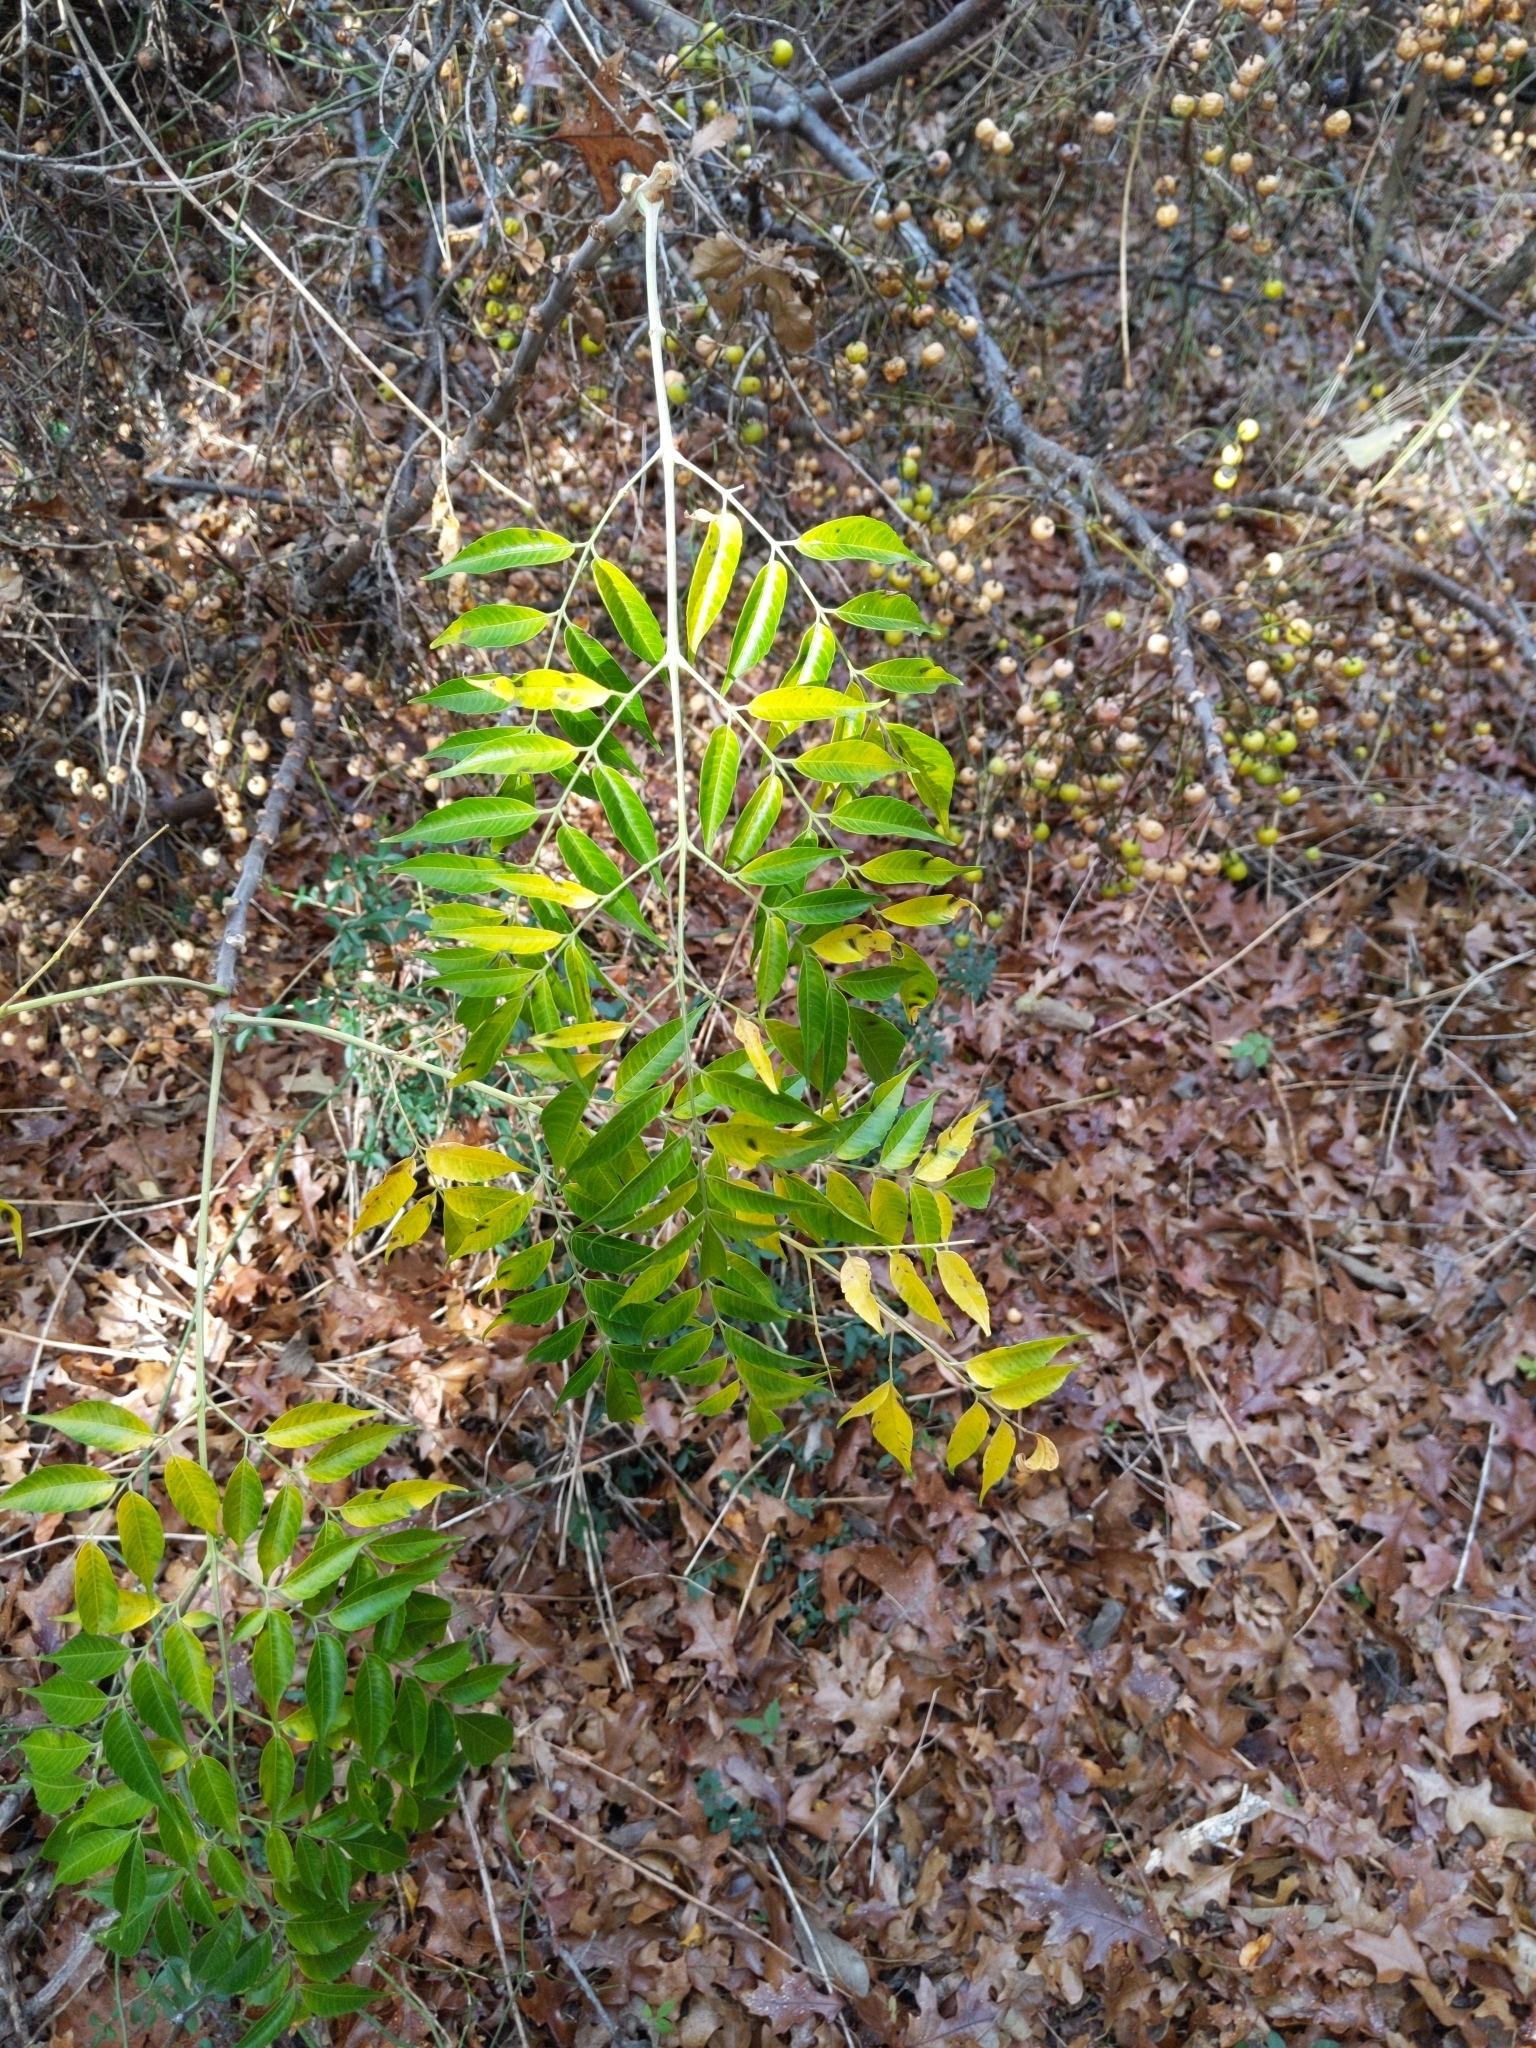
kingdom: Plantae
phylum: Tracheophyta
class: Magnoliopsida
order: Sapindales
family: Meliaceae
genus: Melia
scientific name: Melia azedarach
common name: Chinaberrytree
